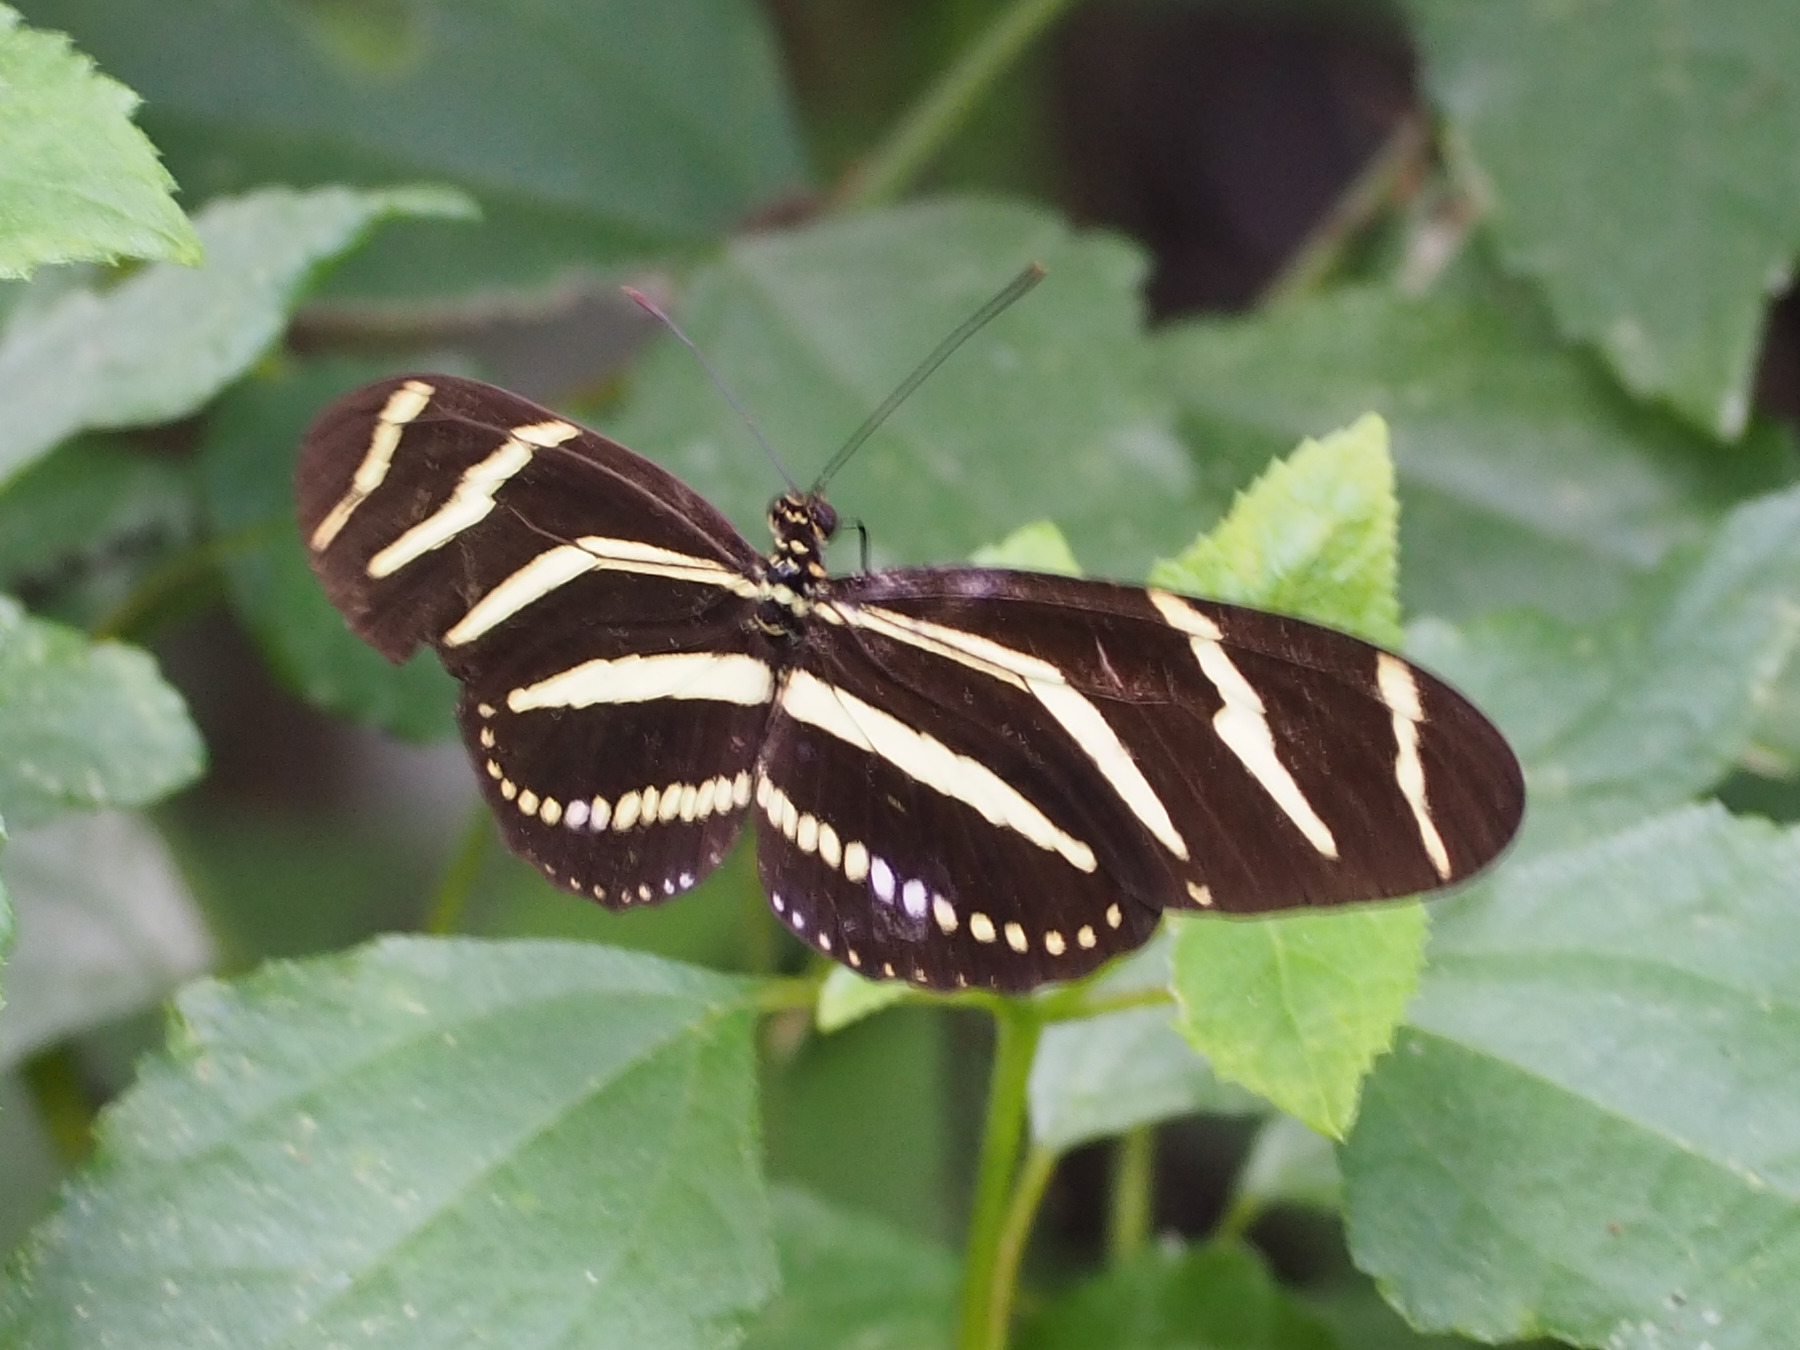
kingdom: Animalia
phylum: Arthropoda
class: Insecta
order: Lepidoptera
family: Nymphalidae
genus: Heliconius
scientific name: Heliconius charithonia
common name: Zebra long wing
